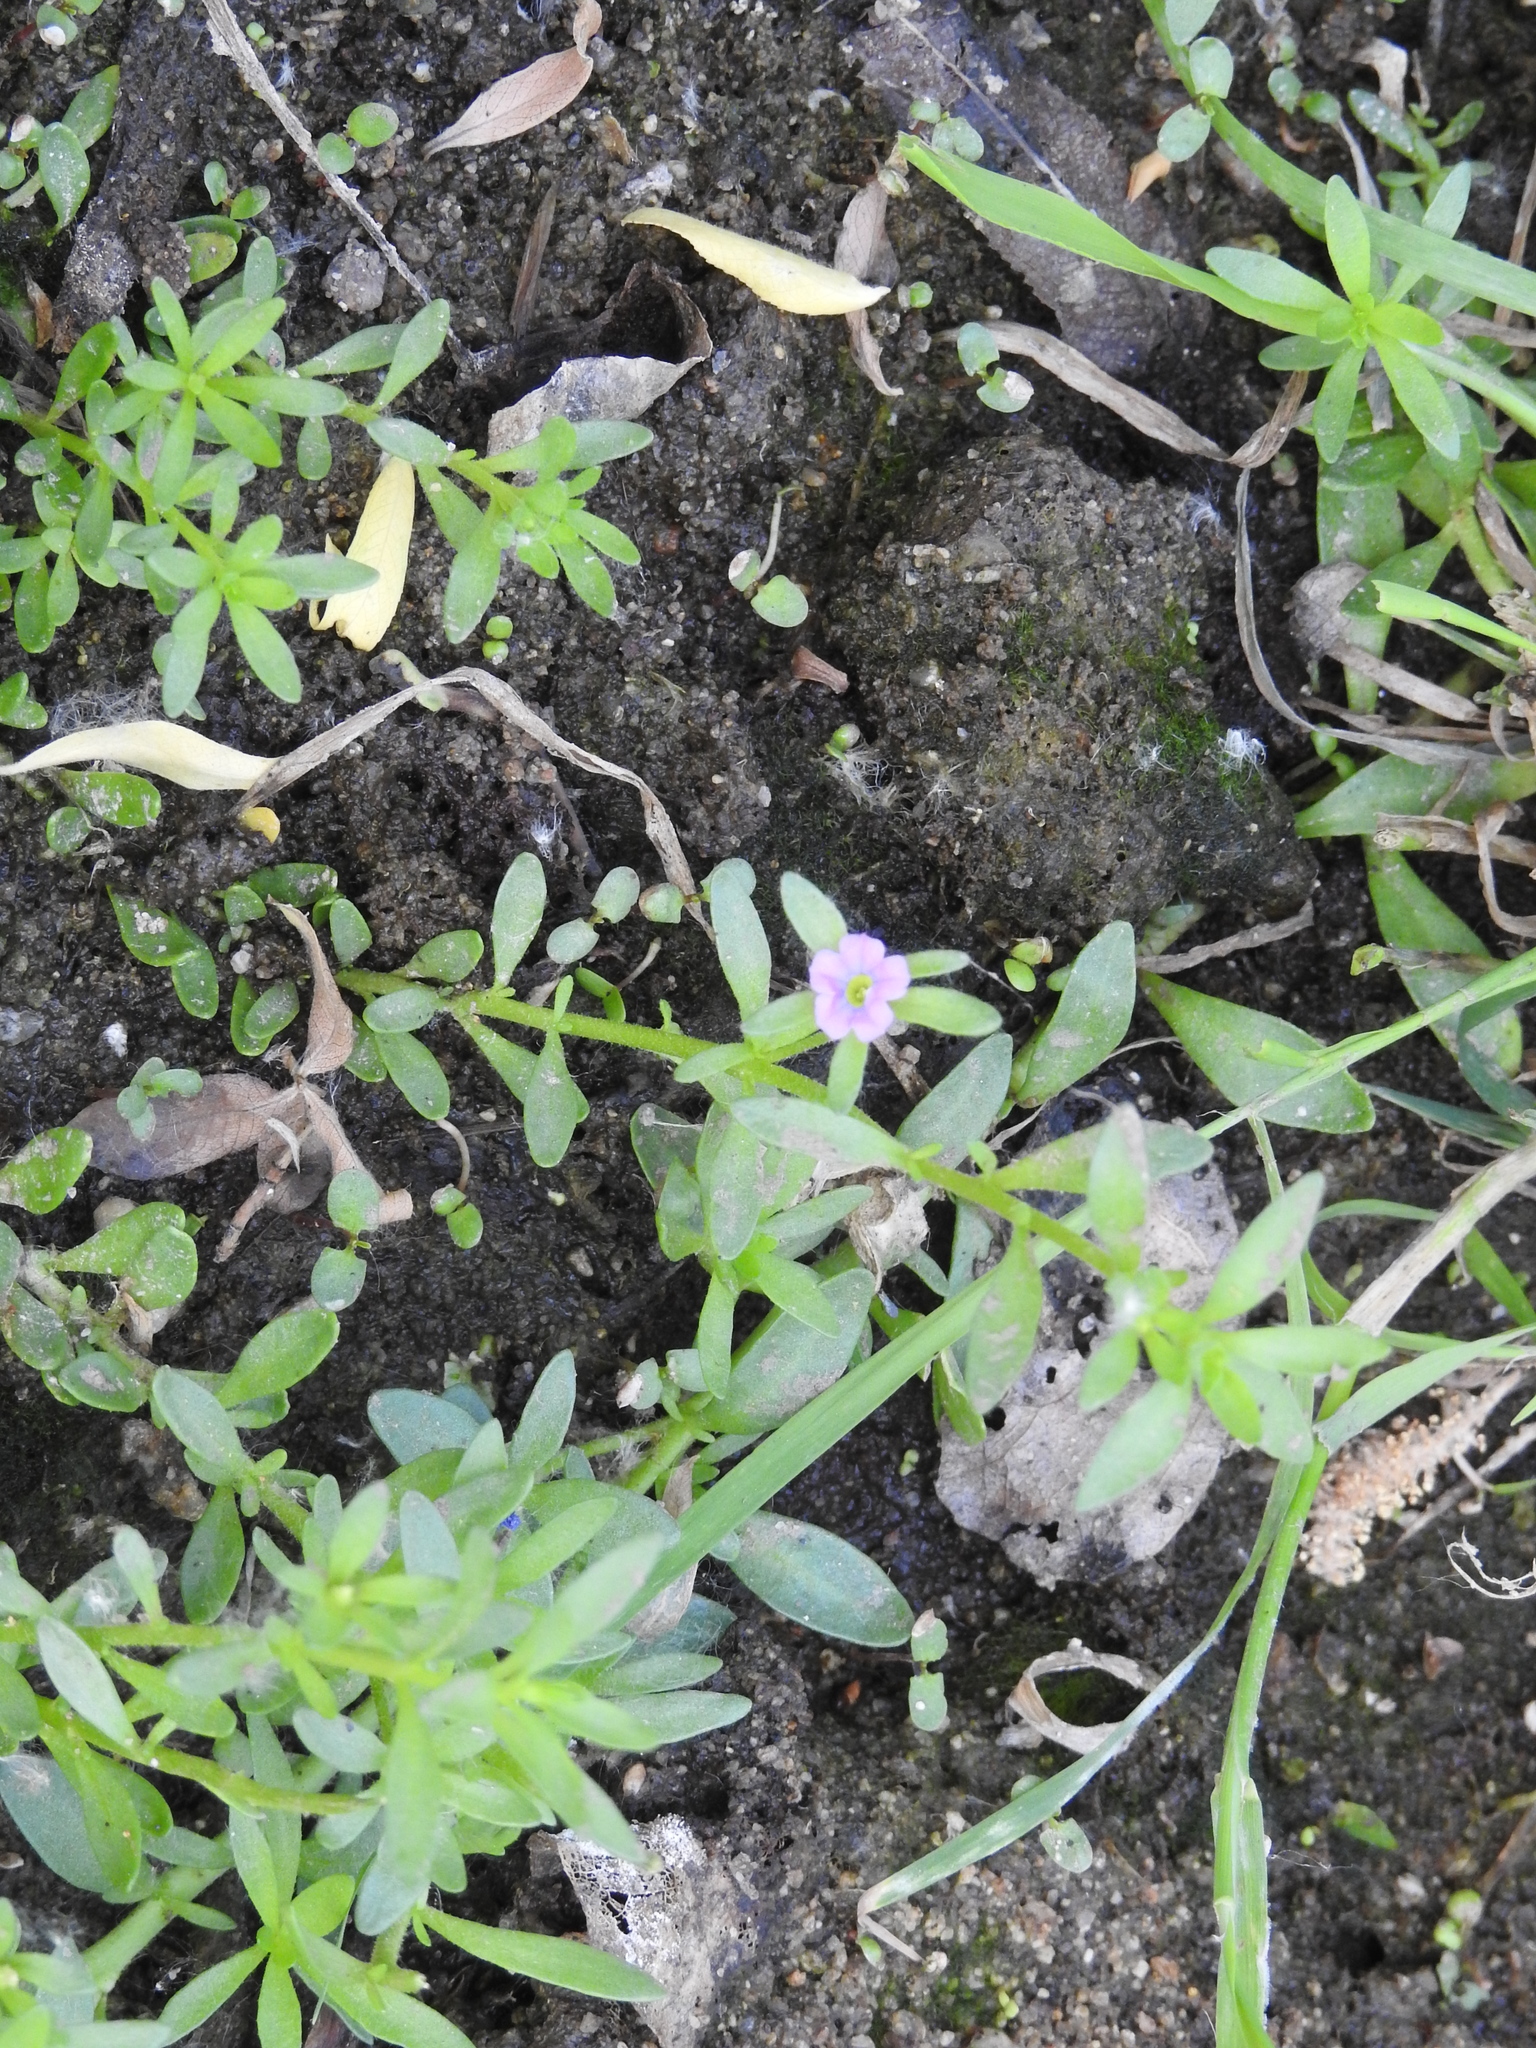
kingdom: Plantae
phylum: Tracheophyta
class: Magnoliopsida
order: Solanales
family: Solanaceae
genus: Calibrachoa
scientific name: Calibrachoa parviflora
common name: Seaside petunia
